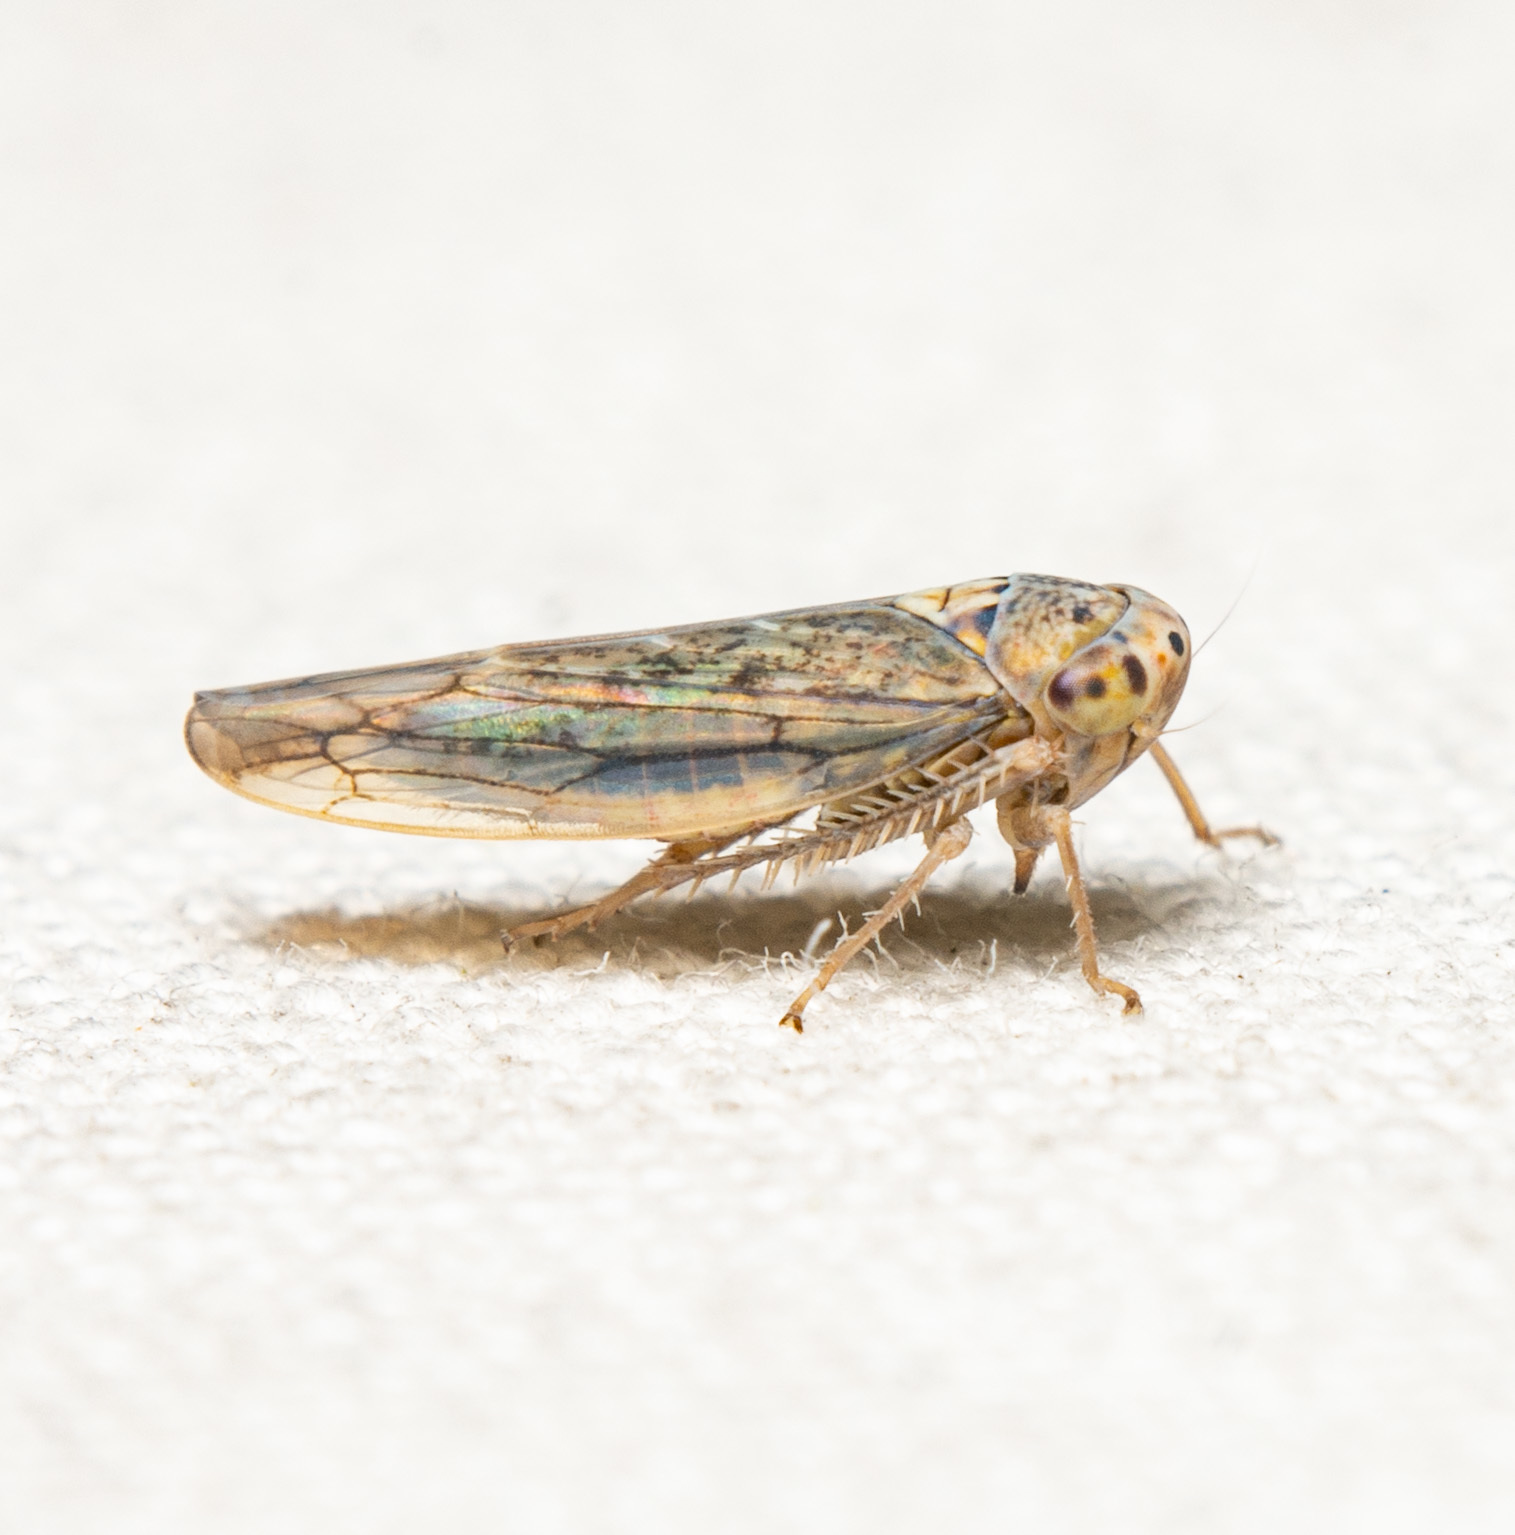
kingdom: Animalia
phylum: Arthropoda
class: Insecta
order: Hemiptera
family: Cicadellidae
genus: Bonneyana
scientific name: Bonneyana osborni
